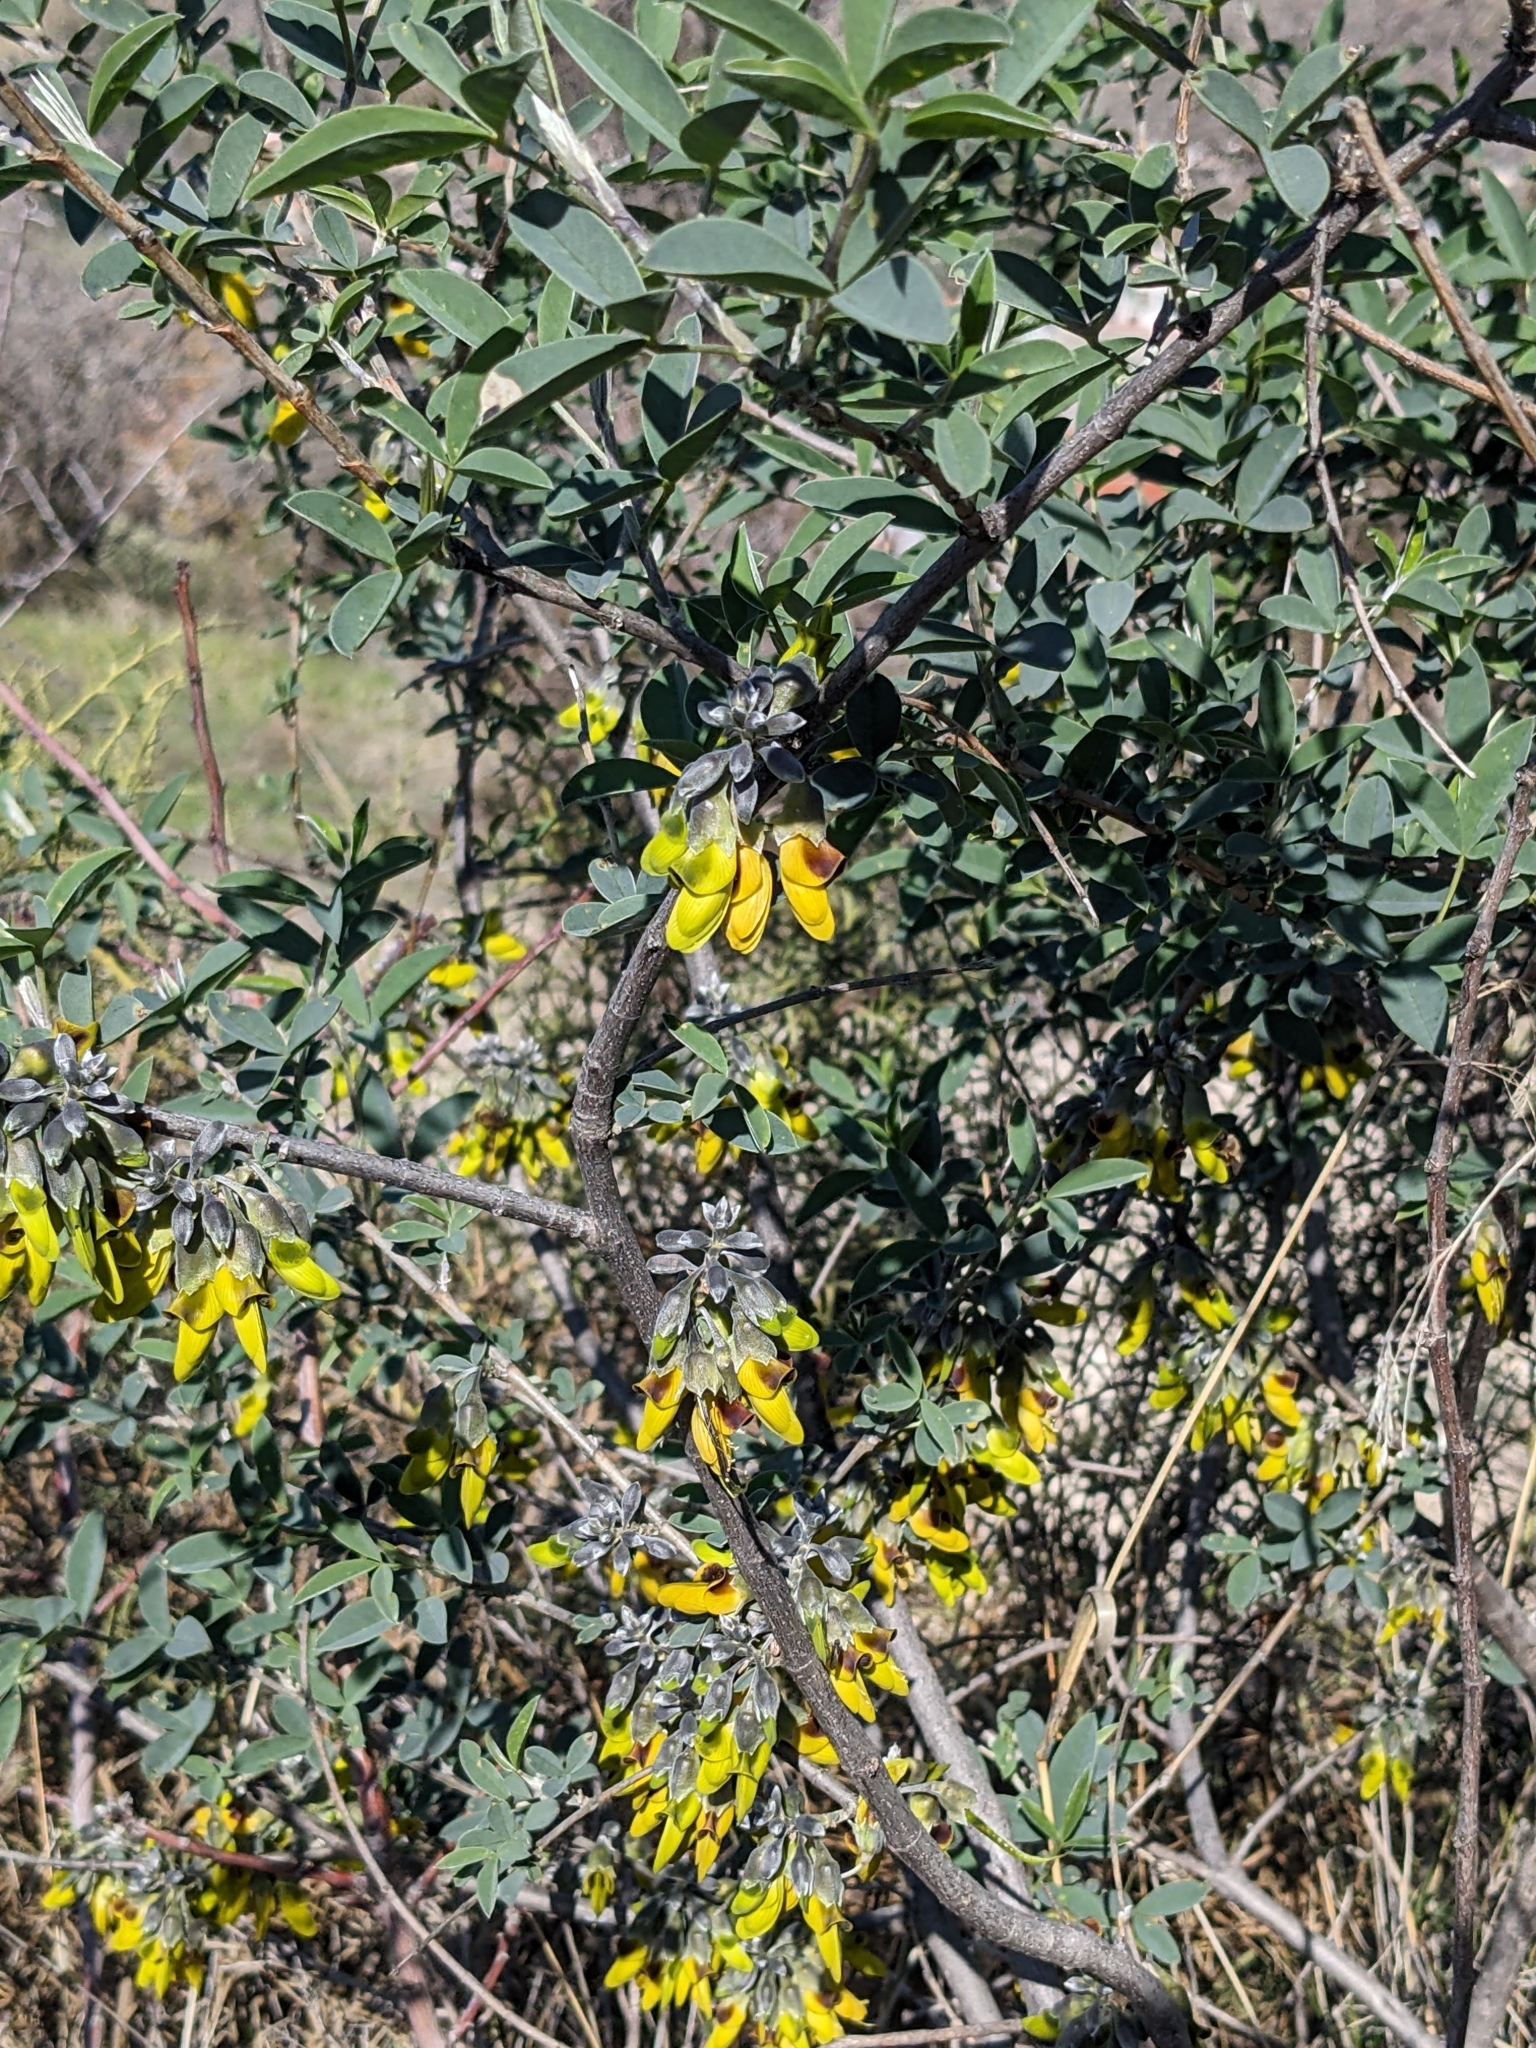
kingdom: Plantae
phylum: Tracheophyta
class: Magnoliopsida
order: Fabales
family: Fabaceae
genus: Anagyris
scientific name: Anagyris foetida
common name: Stinking bean trefoil
